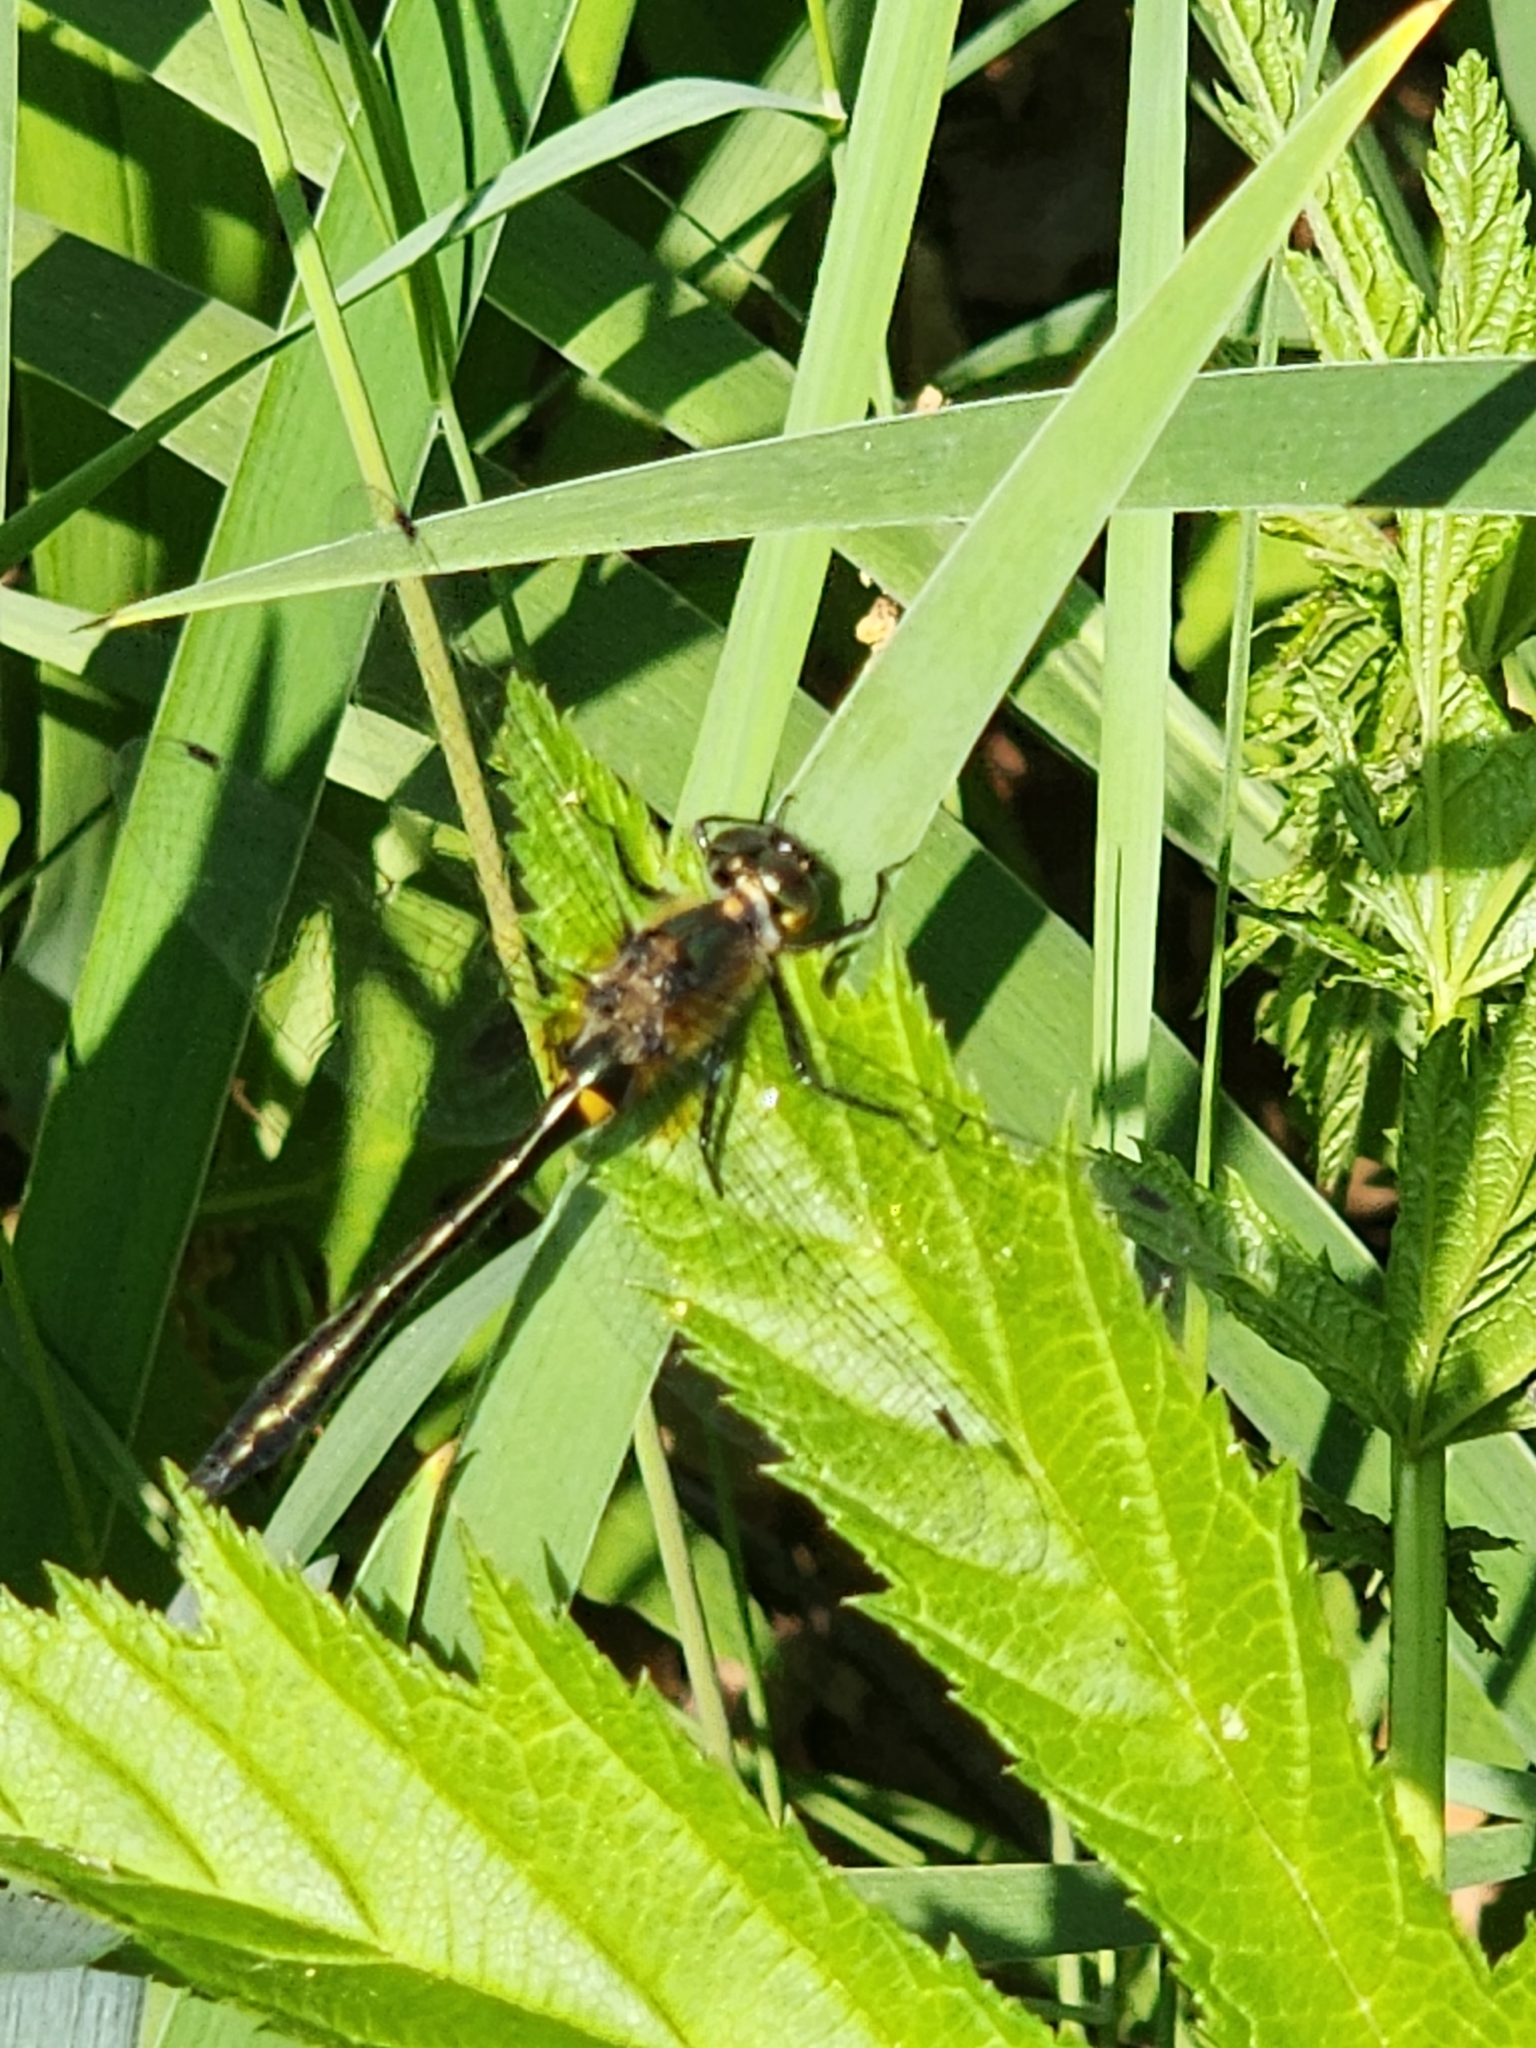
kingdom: Animalia
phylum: Arthropoda
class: Insecta
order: Odonata
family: Corduliidae
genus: Dorocordulia
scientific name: Dorocordulia libera
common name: Racket-tailed emerald
